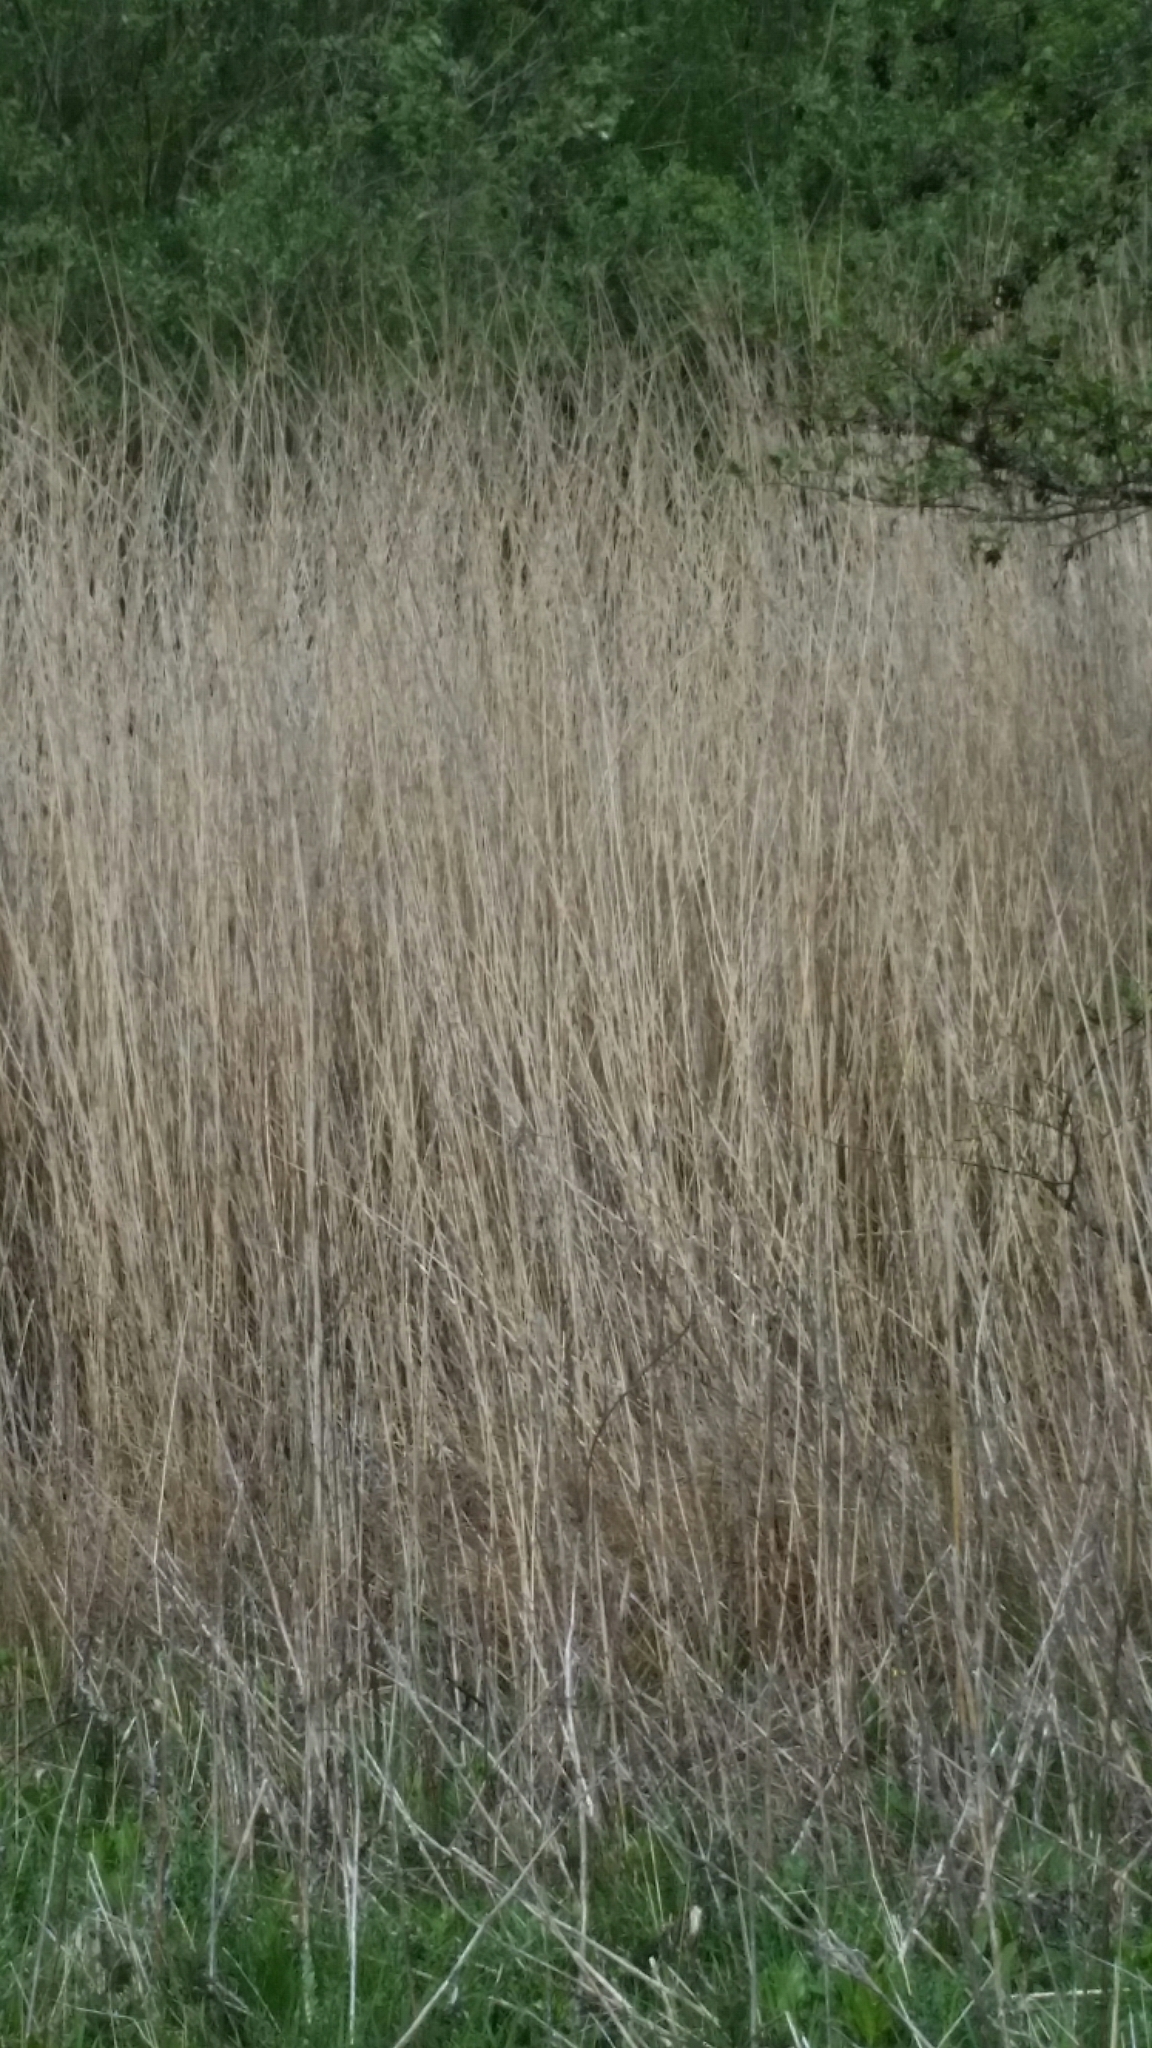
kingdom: Plantae
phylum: Tracheophyta
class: Liliopsida
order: Poales
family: Poaceae
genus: Phragmites
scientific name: Phragmites australis
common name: Common reed
